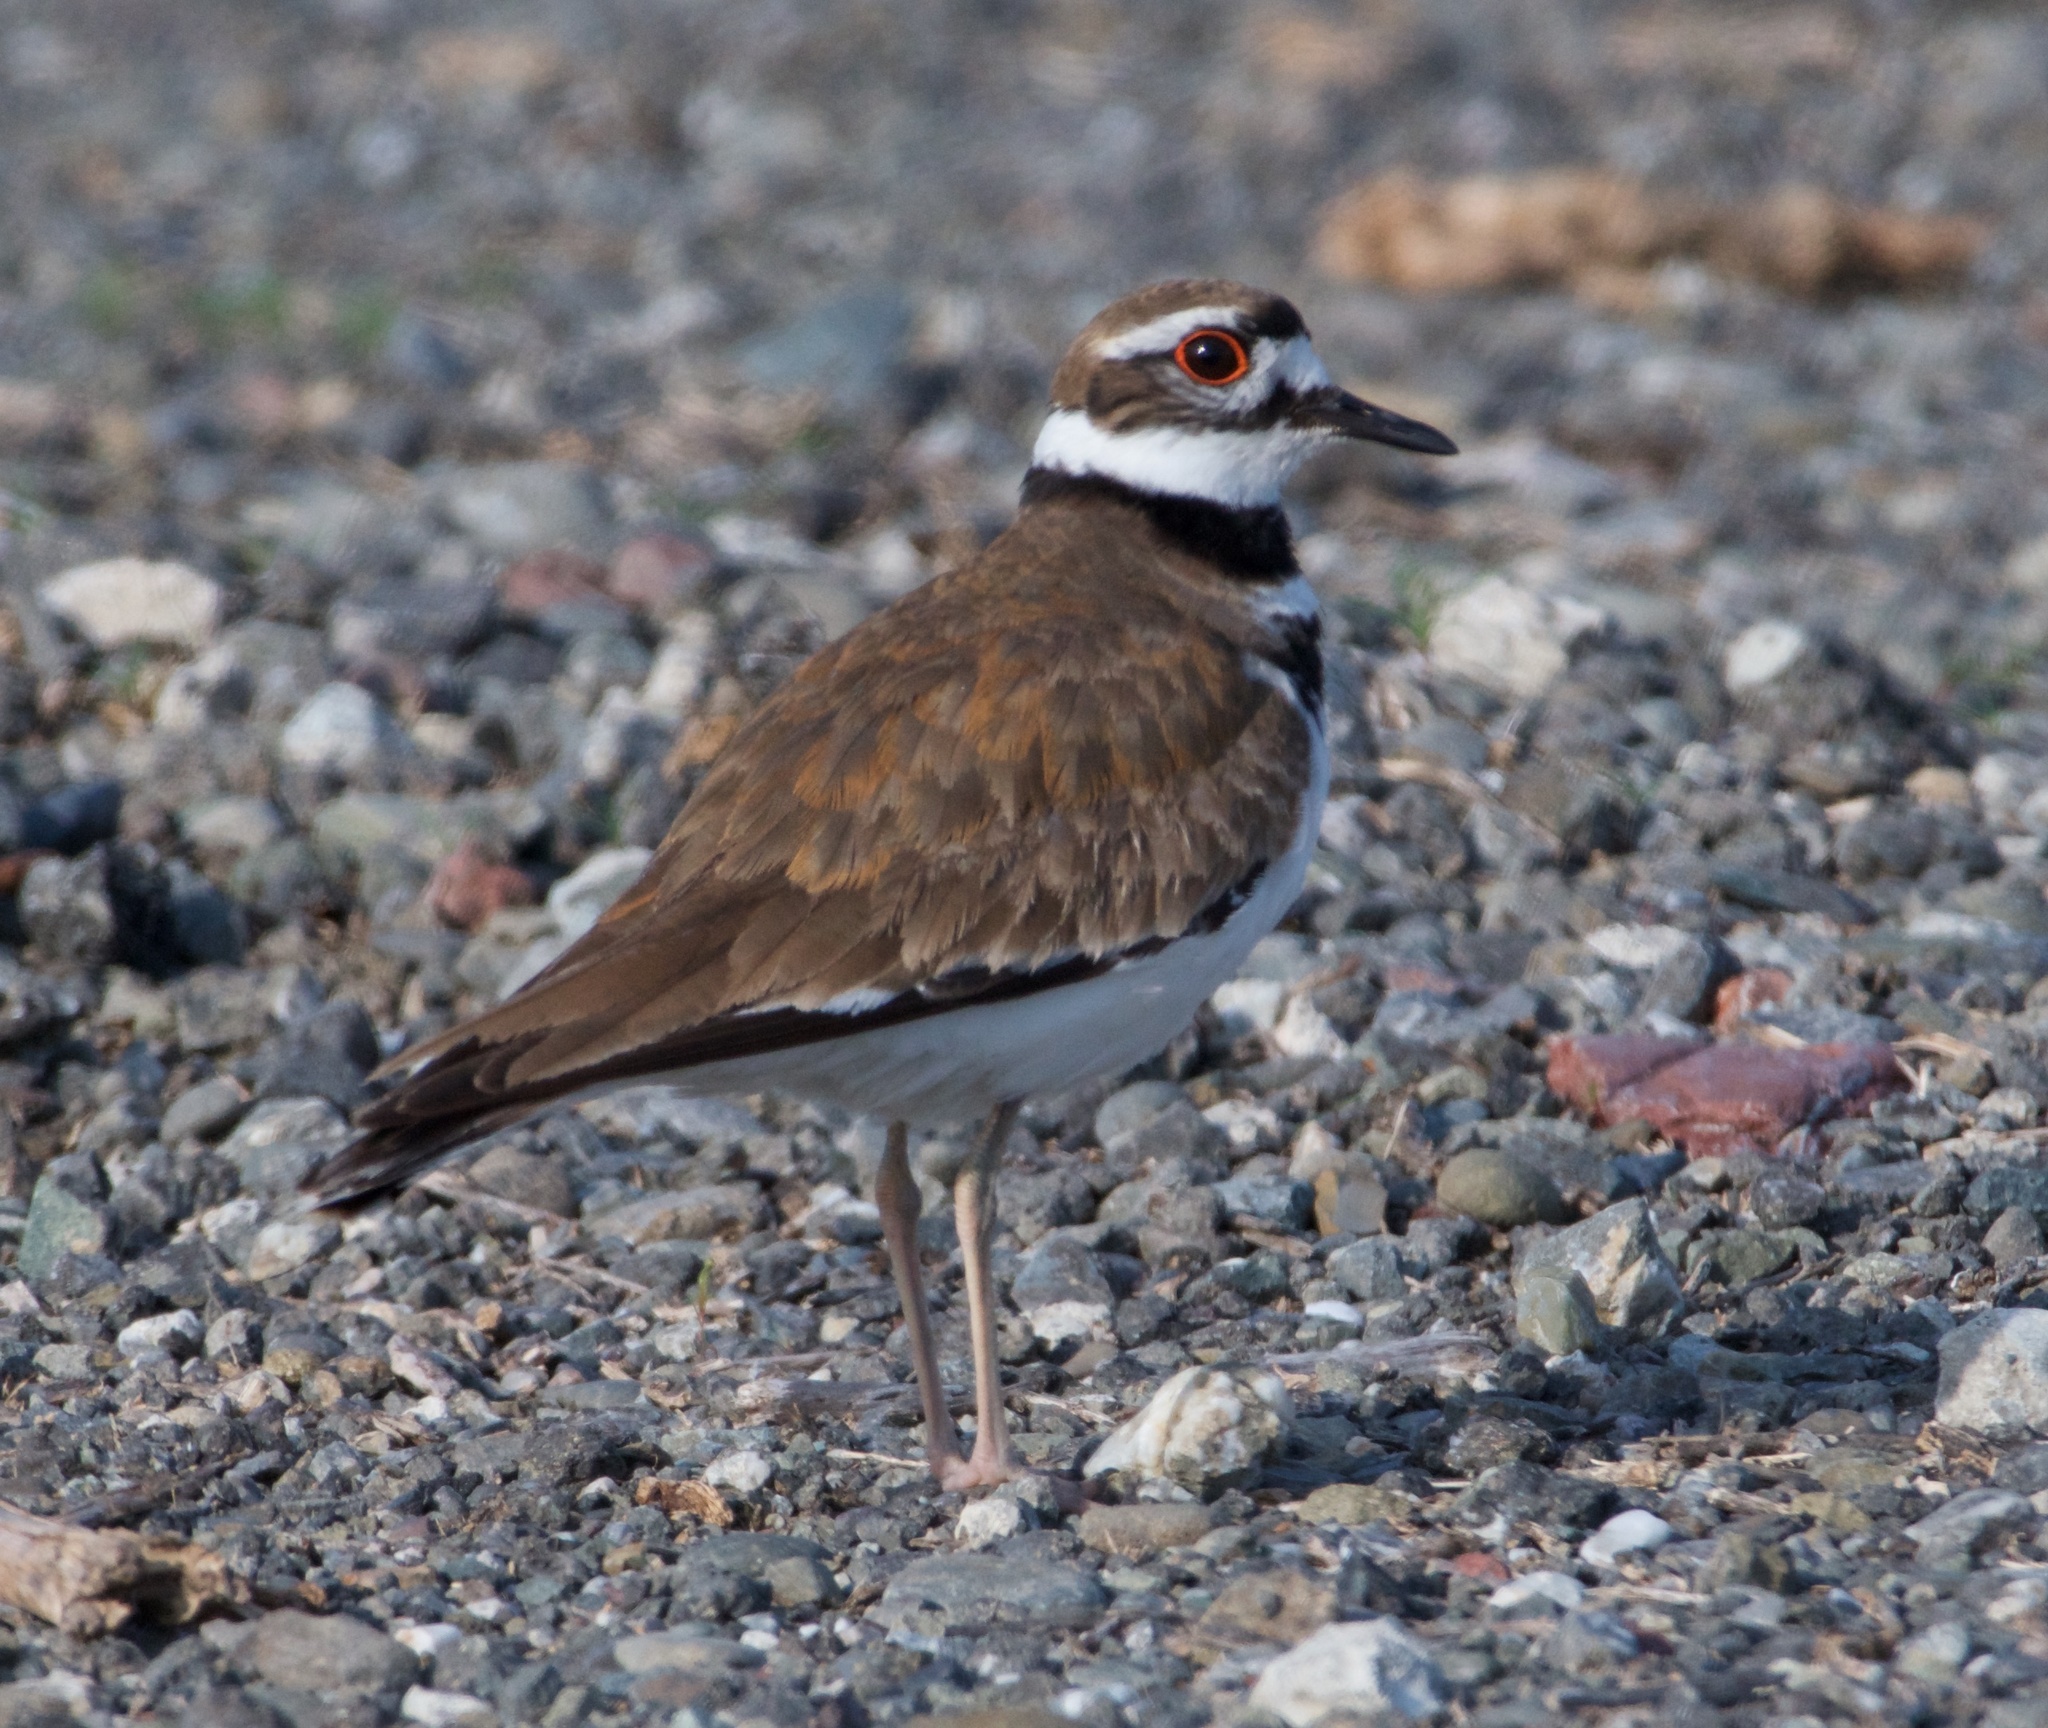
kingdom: Animalia
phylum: Chordata
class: Aves
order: Charadriiformes
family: Charadriidae
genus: Charadrius
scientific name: Charadrius vociferus
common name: Killdeer
